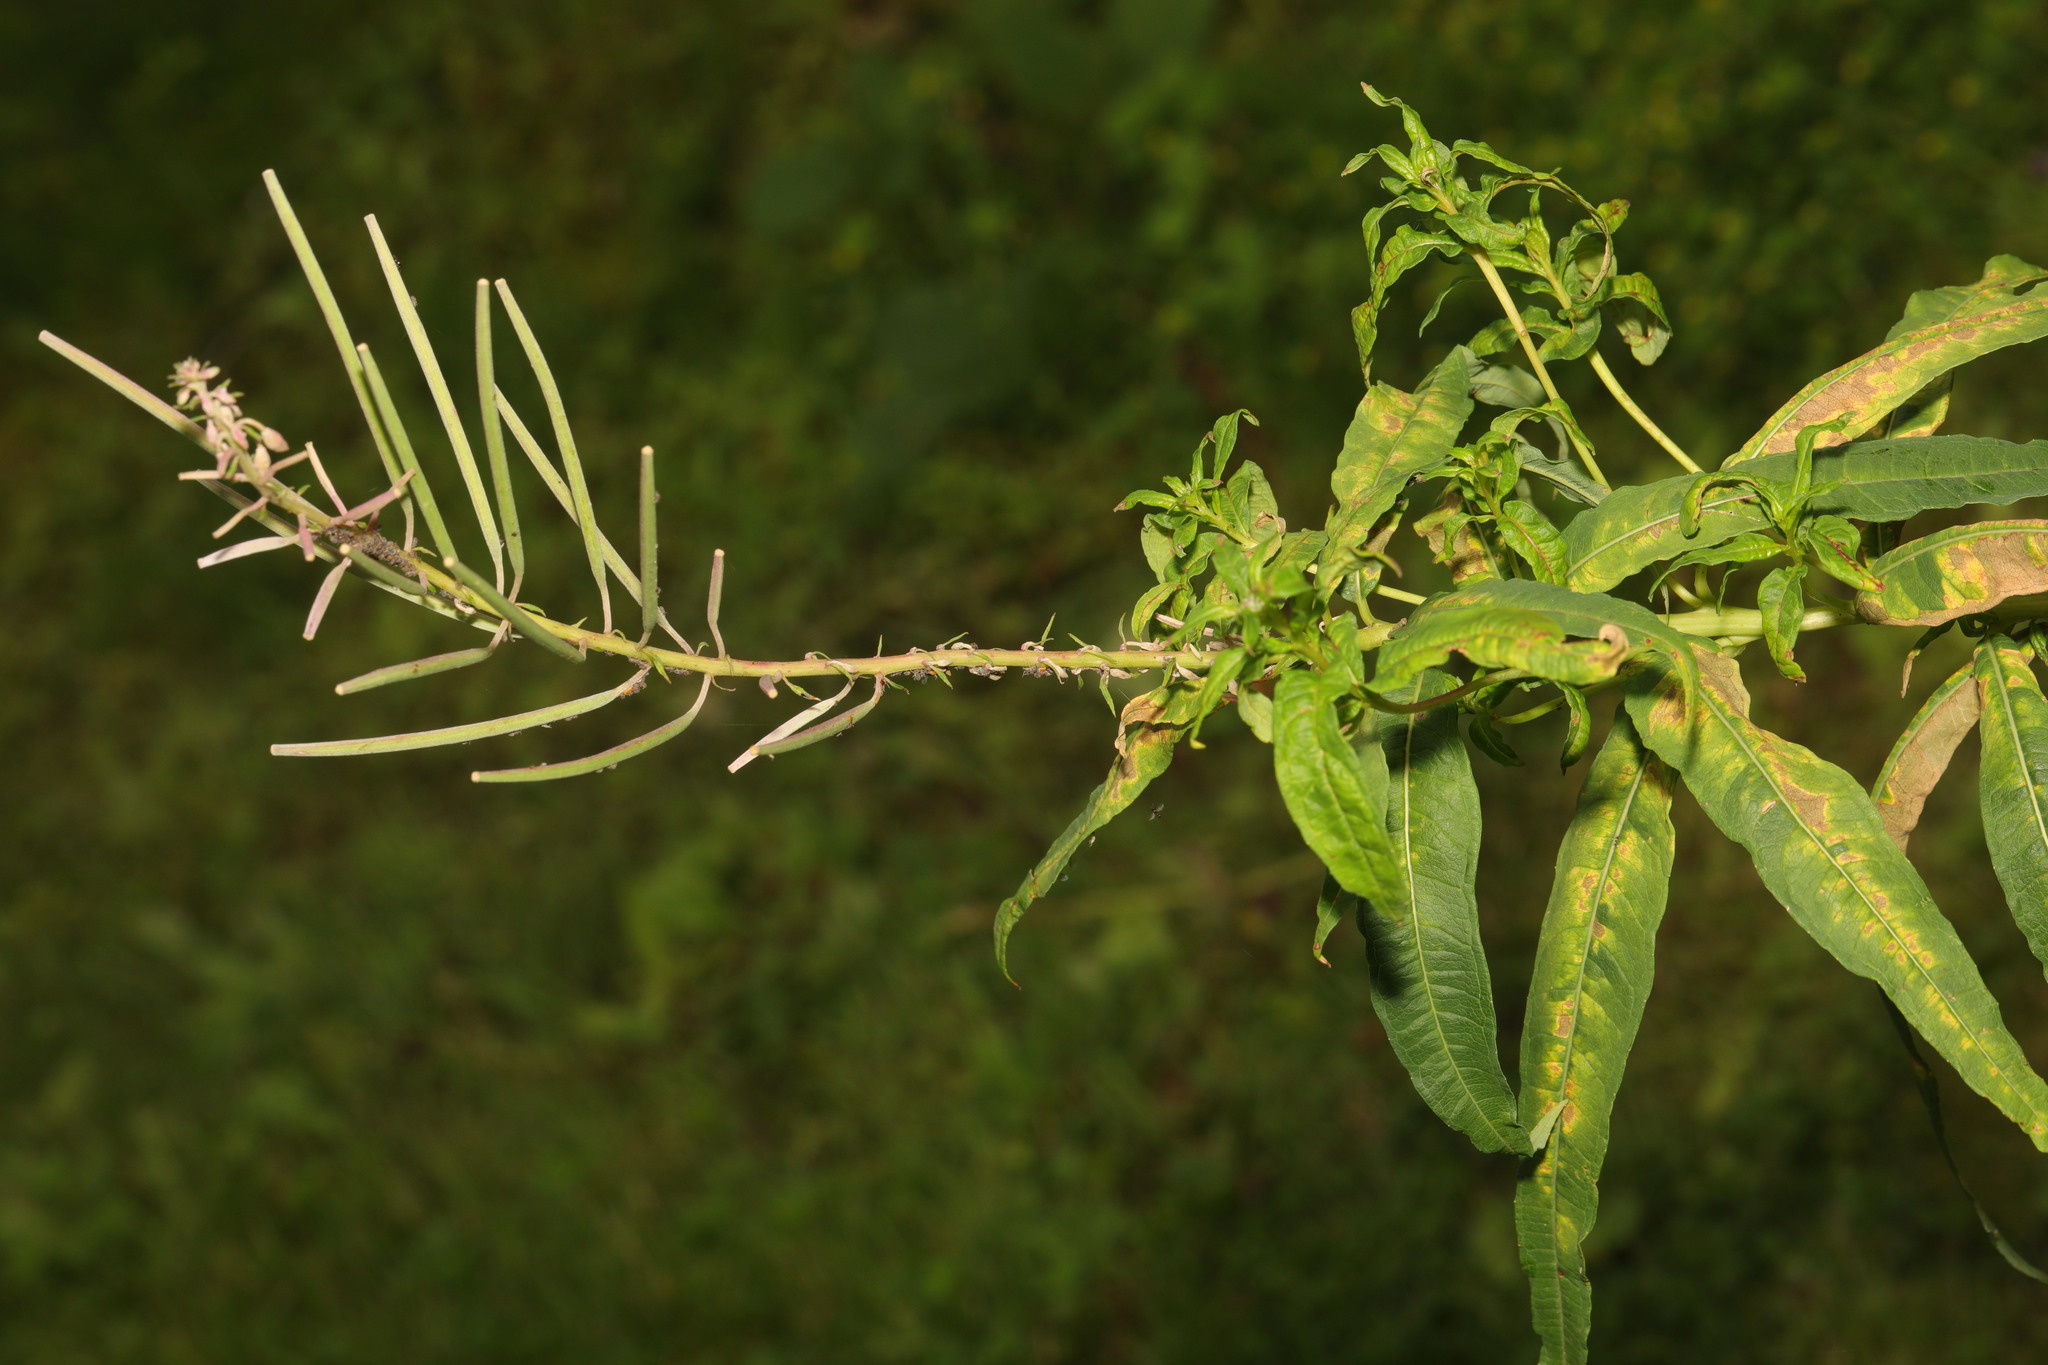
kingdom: Plantae
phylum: Tracheophyta
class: Magnoliopsida
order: Myrtales
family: Onagraceae
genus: Chamaenerion
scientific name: Chamaenerion angustifolium
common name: Fireweed
